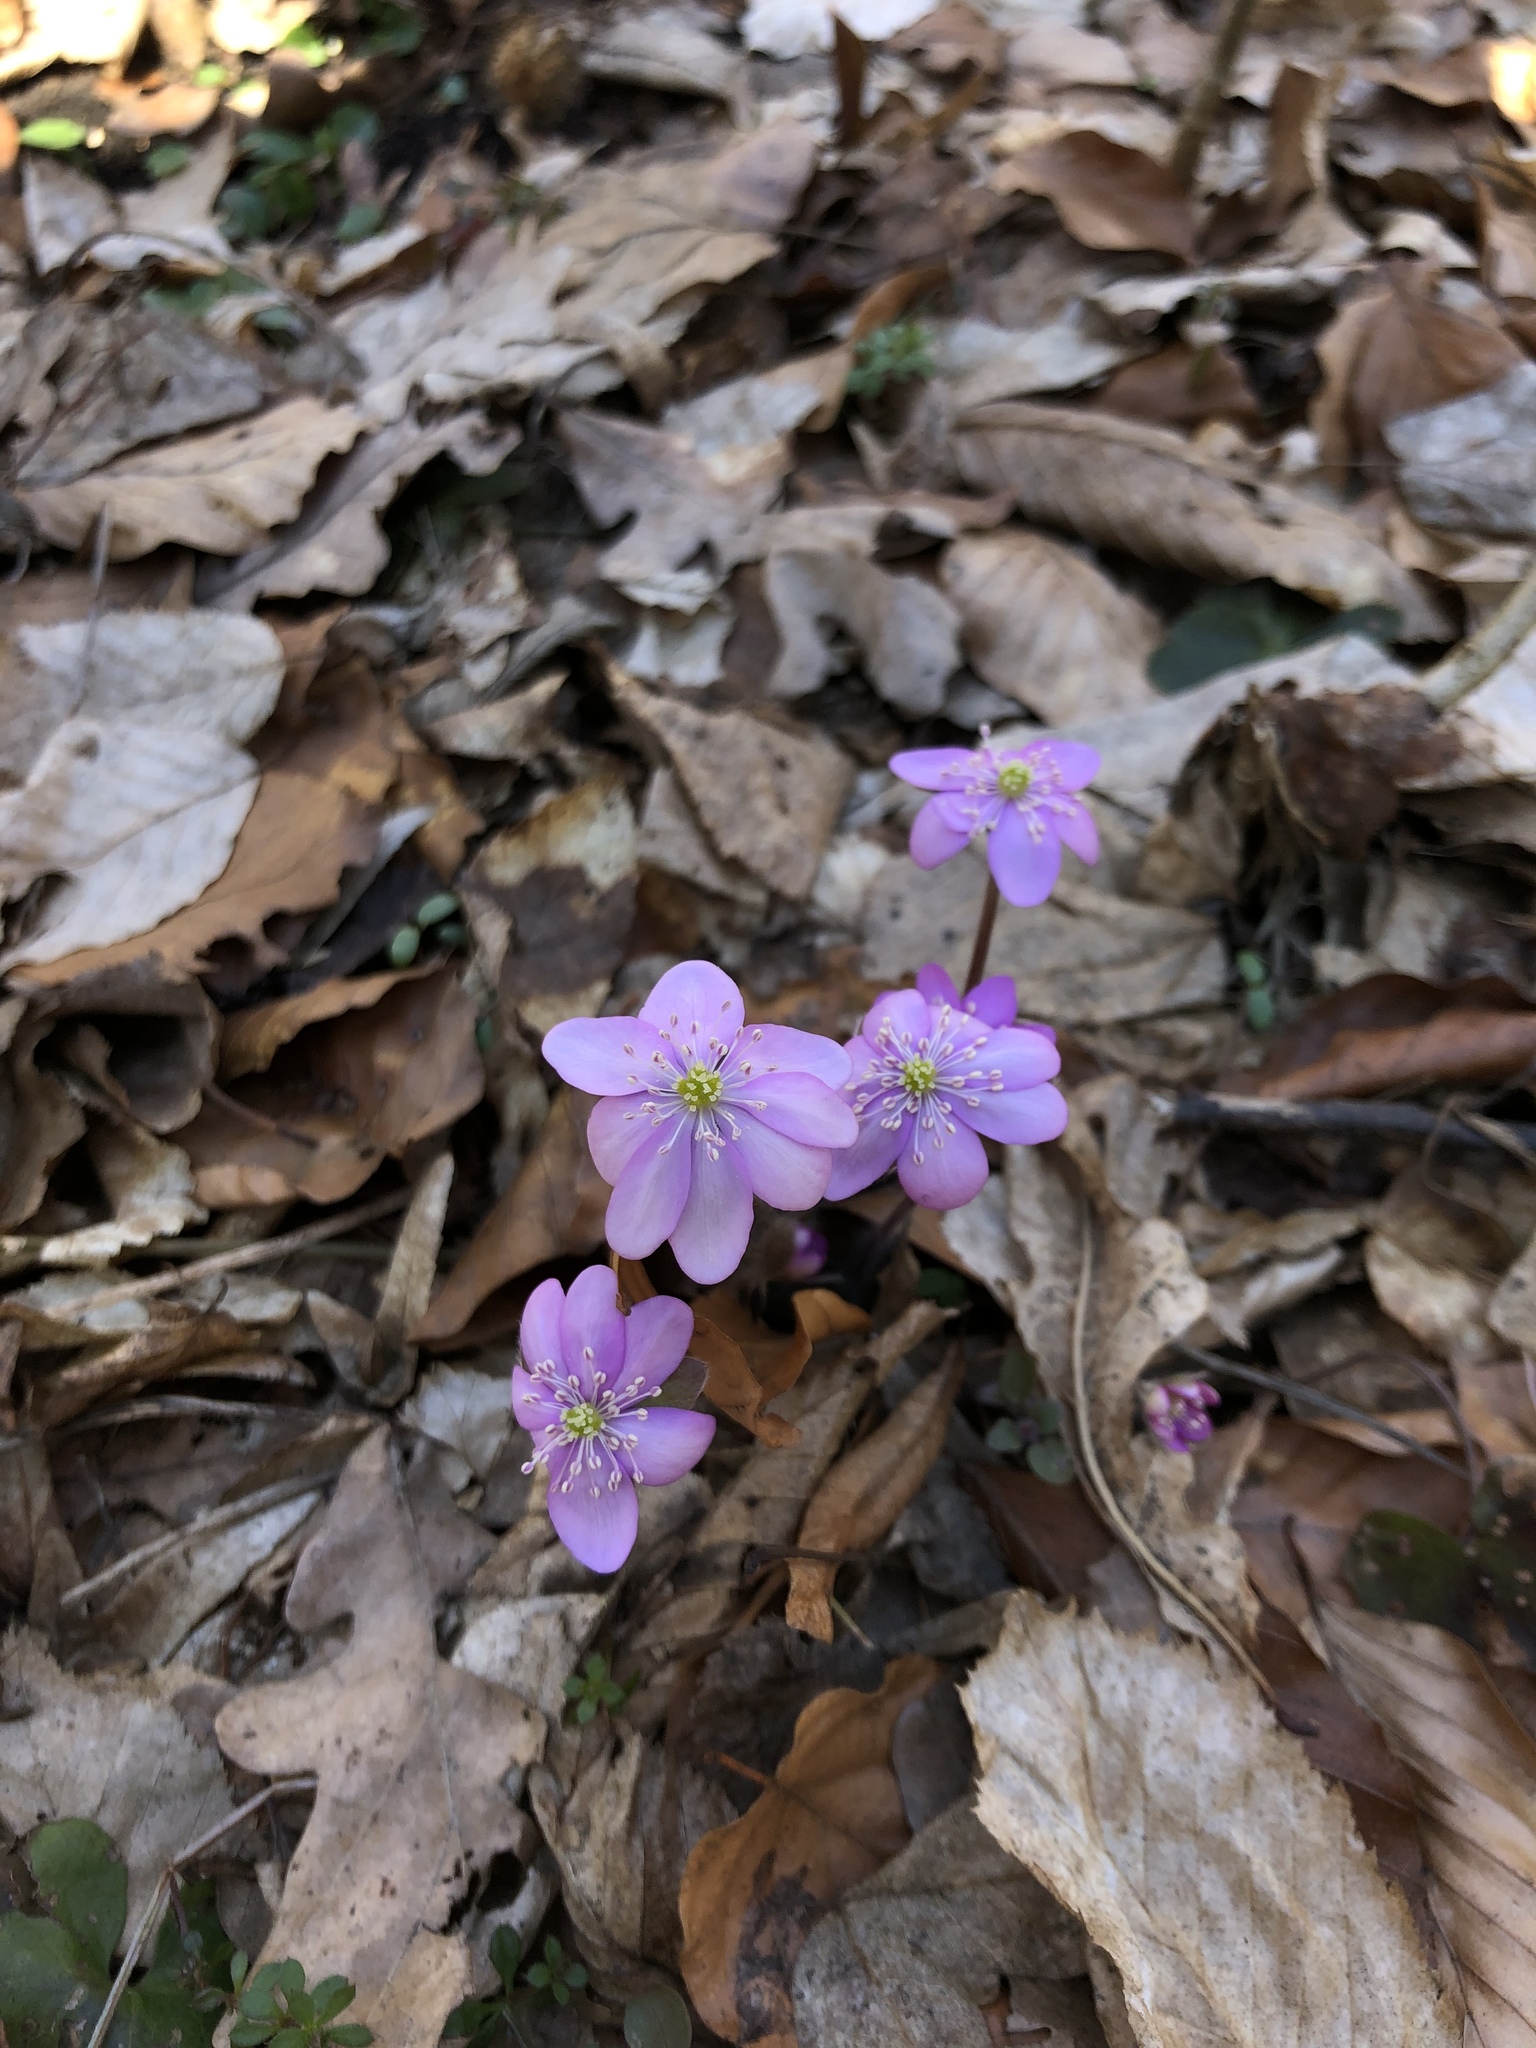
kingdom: Plantae
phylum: Tracheophyta
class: Magnoliopsida
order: Ranunculales
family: Ranunculaceae
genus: Hepatica
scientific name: Hepatica nobilis
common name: Liverleaf
